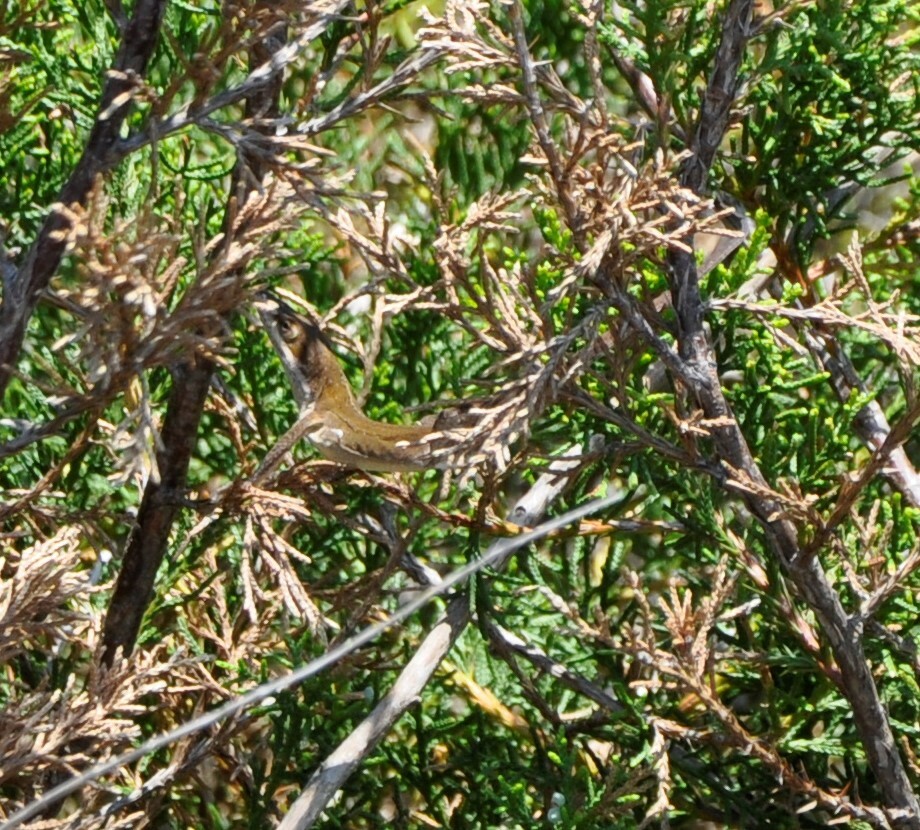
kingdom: Animalia
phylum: Chordata
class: Squamata
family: Dactyloidae
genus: Anolis
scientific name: Anolis carolinensis
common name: Green anole
